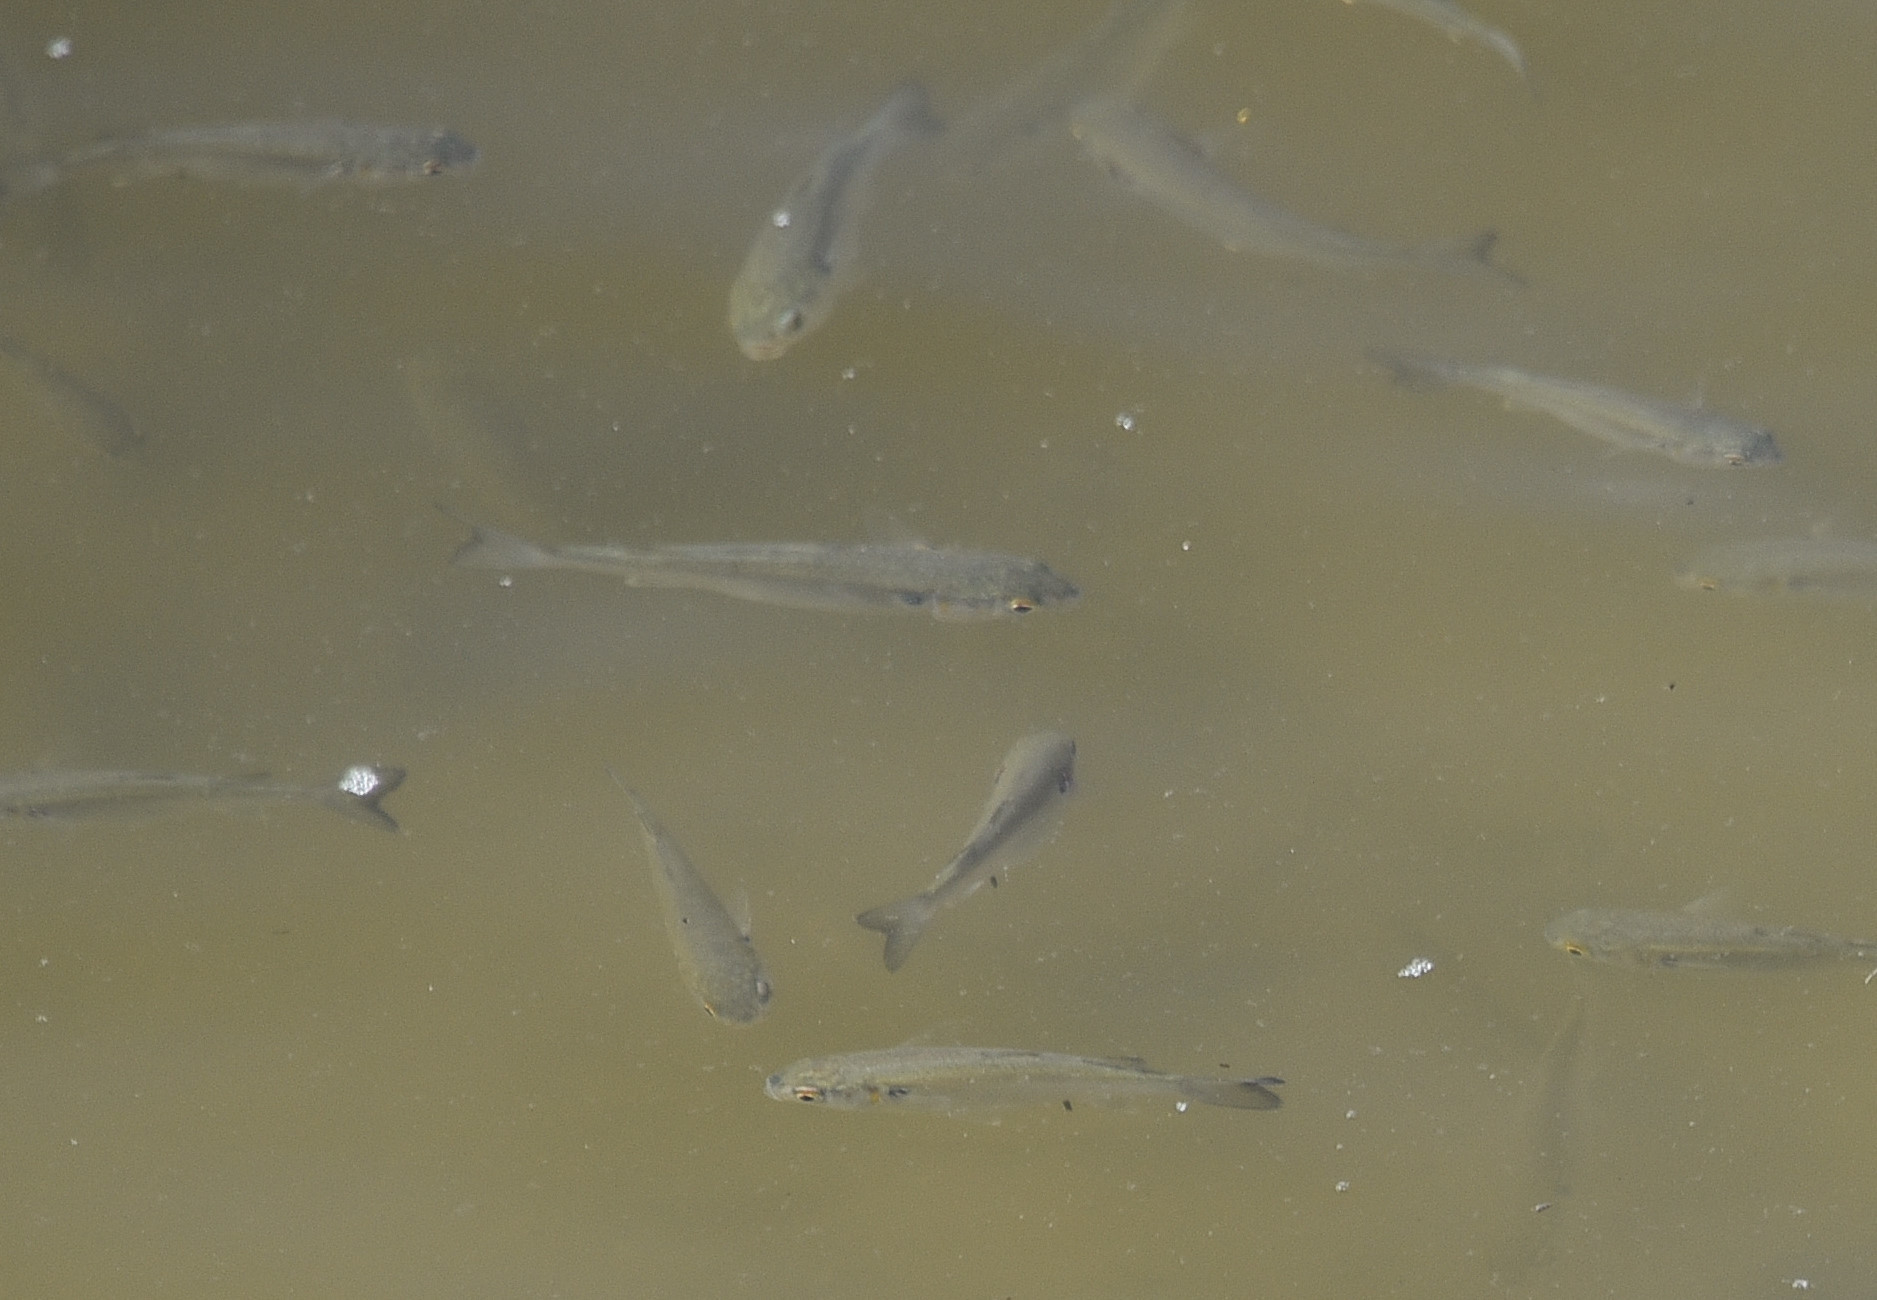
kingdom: Animalia
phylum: Chordata
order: Mugiliformes
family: Mugilidae
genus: Mugil
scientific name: Mugil curema
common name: White mullet
